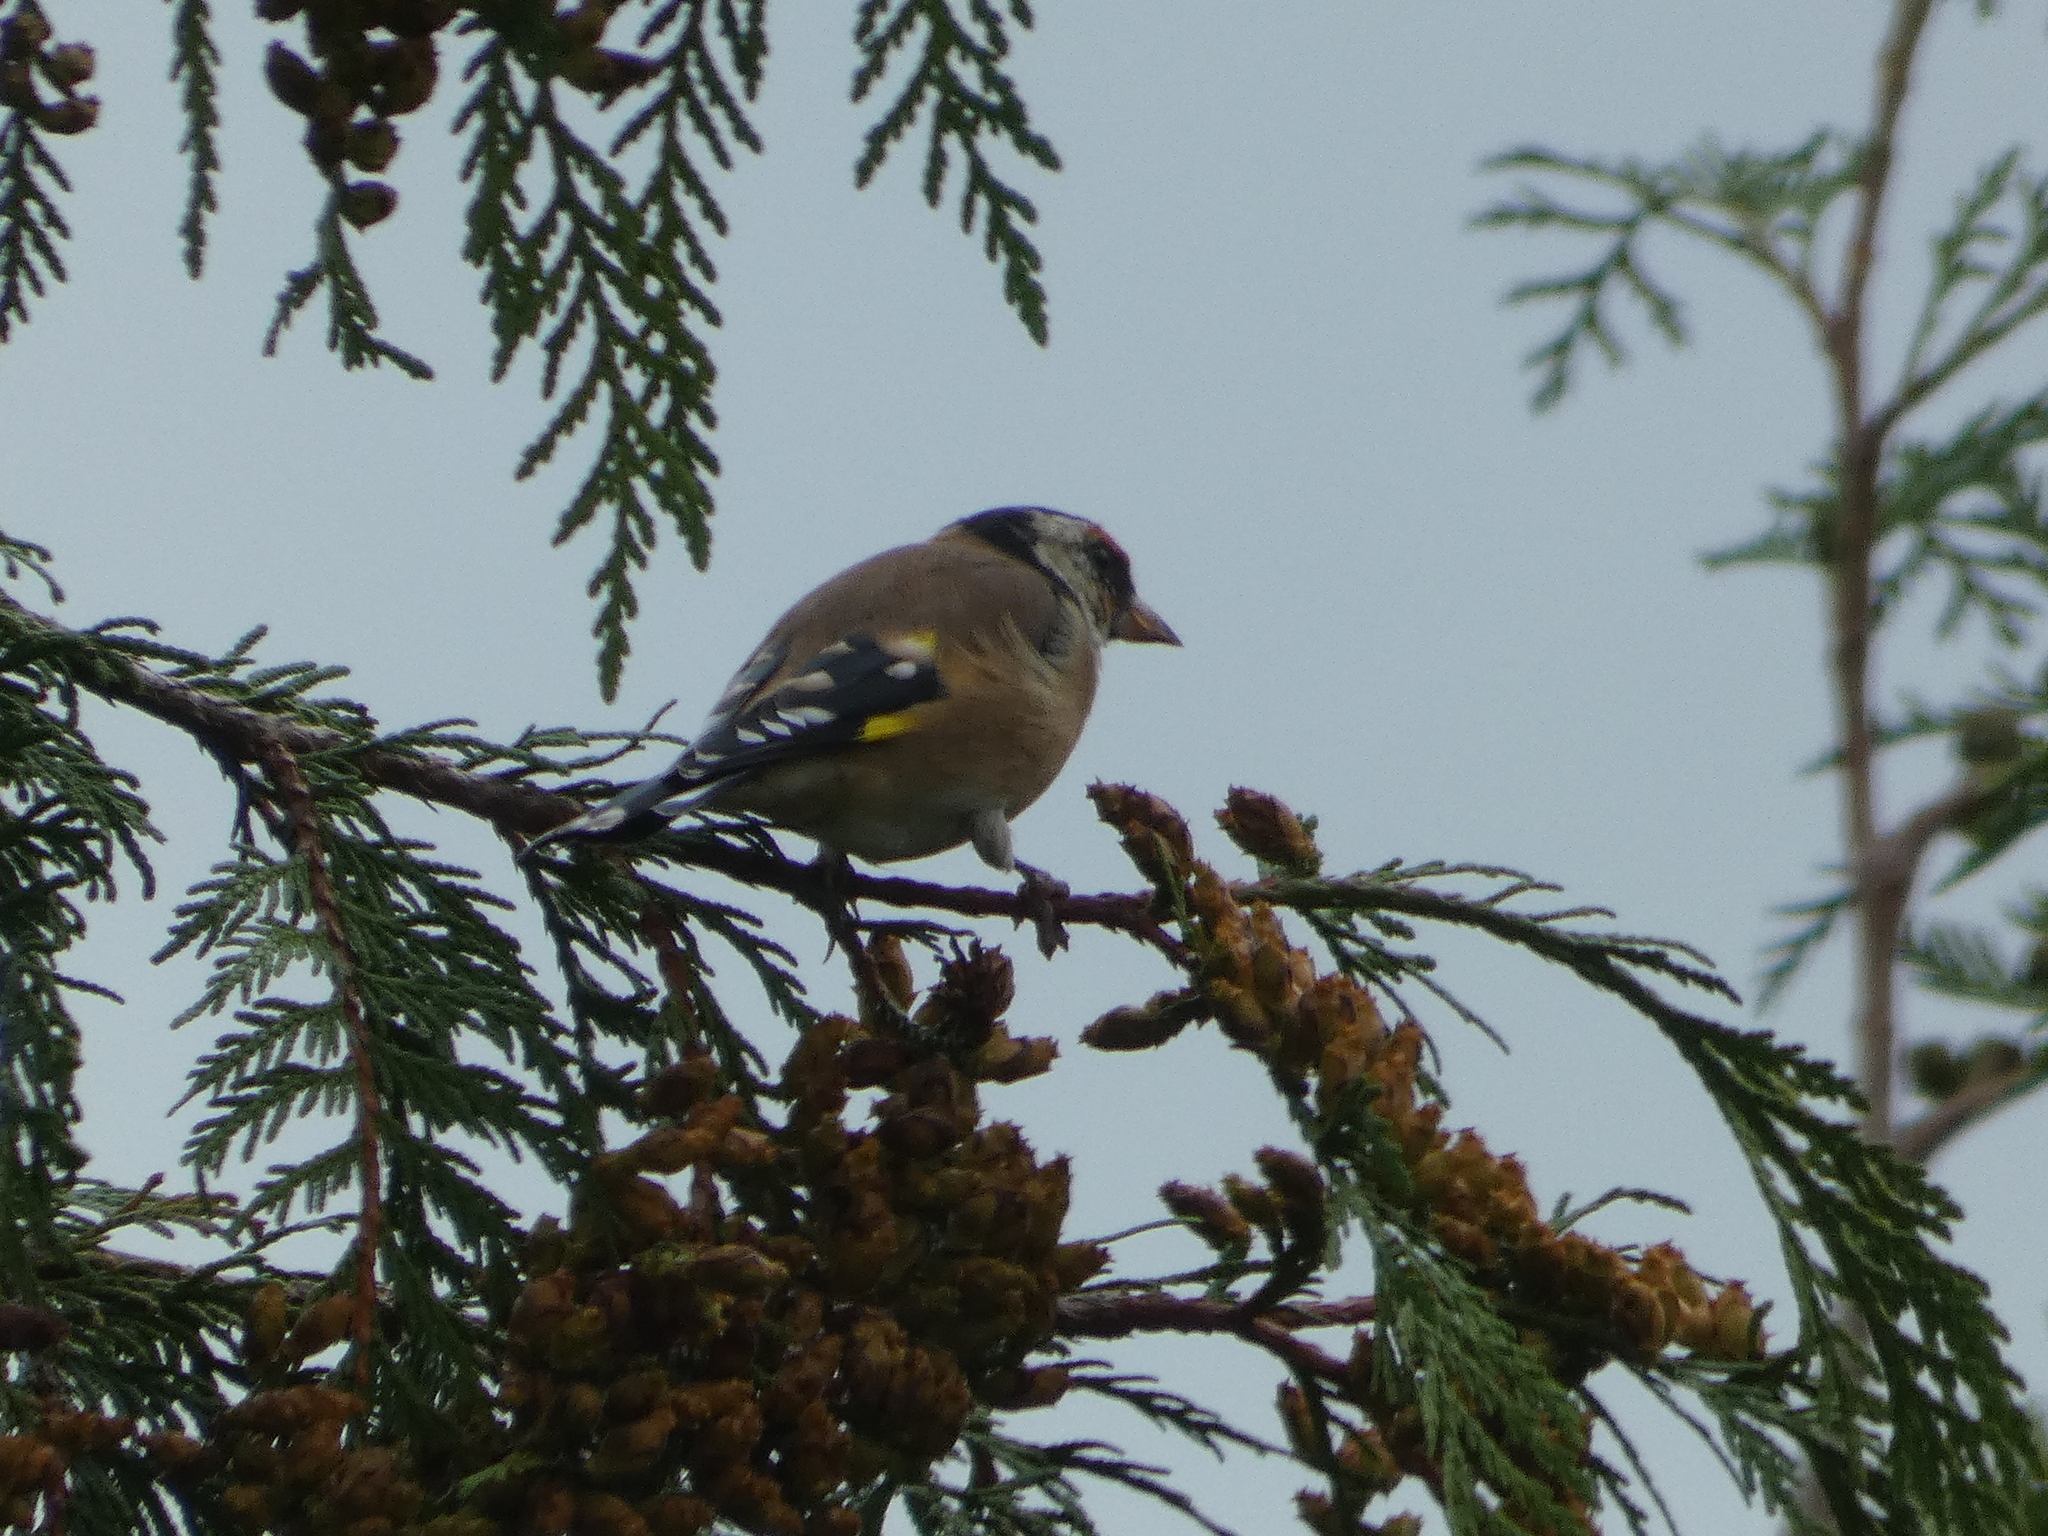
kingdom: Animalia
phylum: Chordata
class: Aves
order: Passeriformes
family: Fringillidae
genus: Carduelis
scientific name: Carduelis carduelis
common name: European goldfinch
